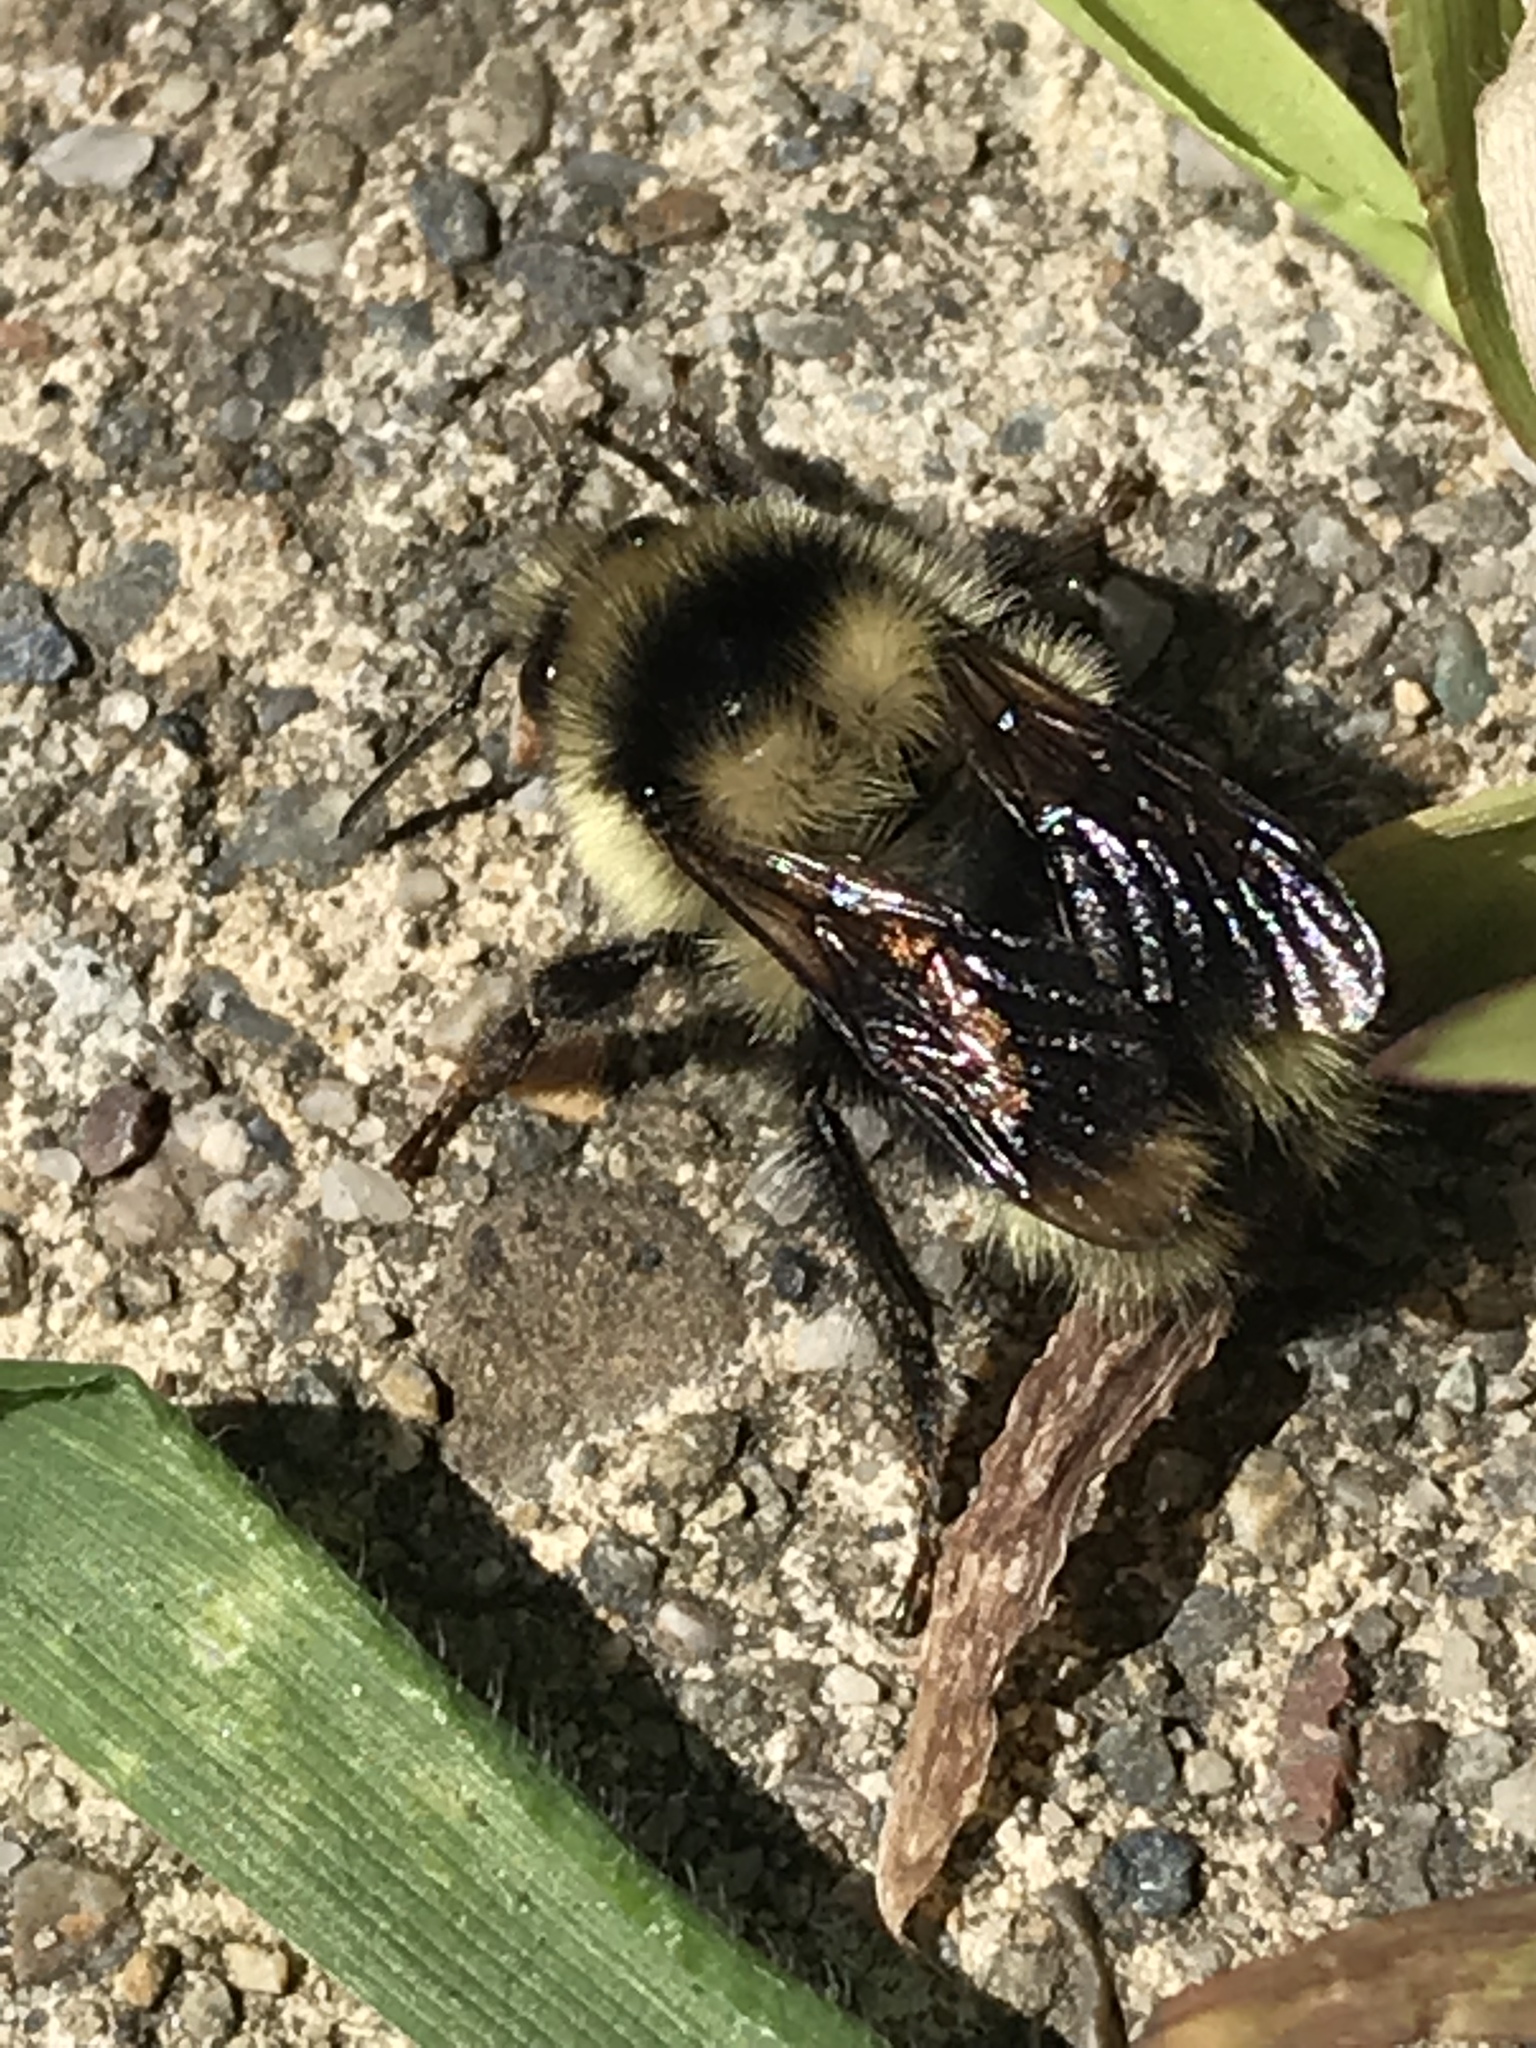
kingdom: Animalia
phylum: Arthropoda
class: Insecta
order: Hymenoptera
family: Apidae
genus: Bombus
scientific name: Bombus melanopygus
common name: Black tail bumble bee
